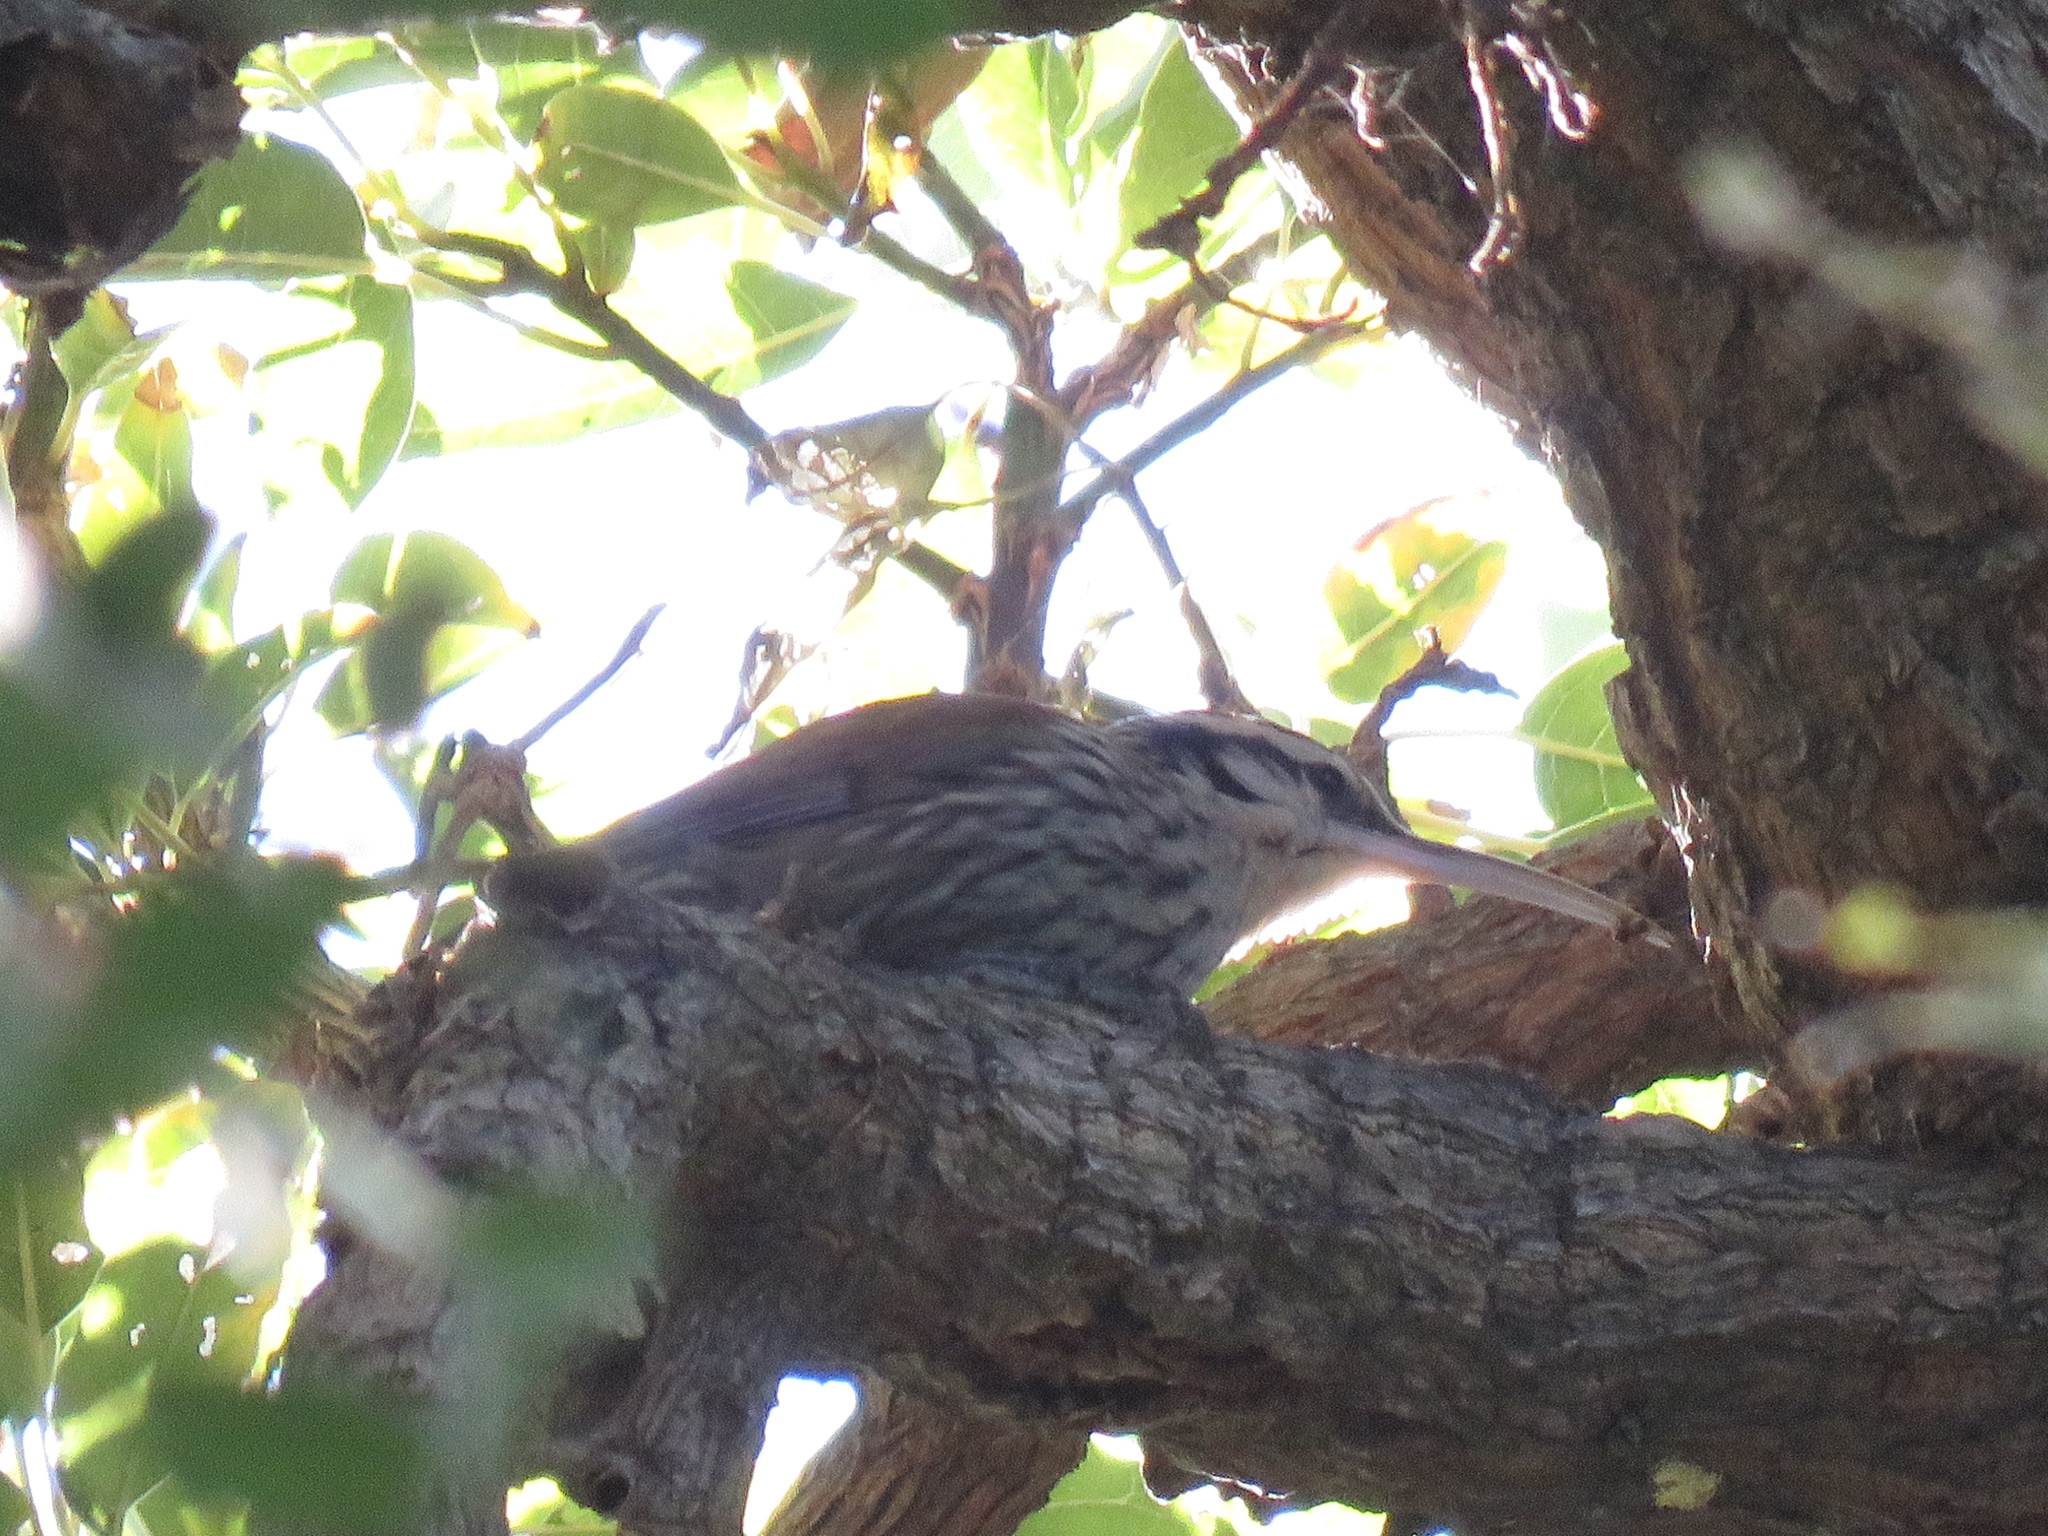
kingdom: Animalia
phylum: Chordata
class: Aves
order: Passeriformes
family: Furnariidae
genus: Lepidocolaptes
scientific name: Lepidocolaptes angustirostris
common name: Narrow-billed woodcreeper
